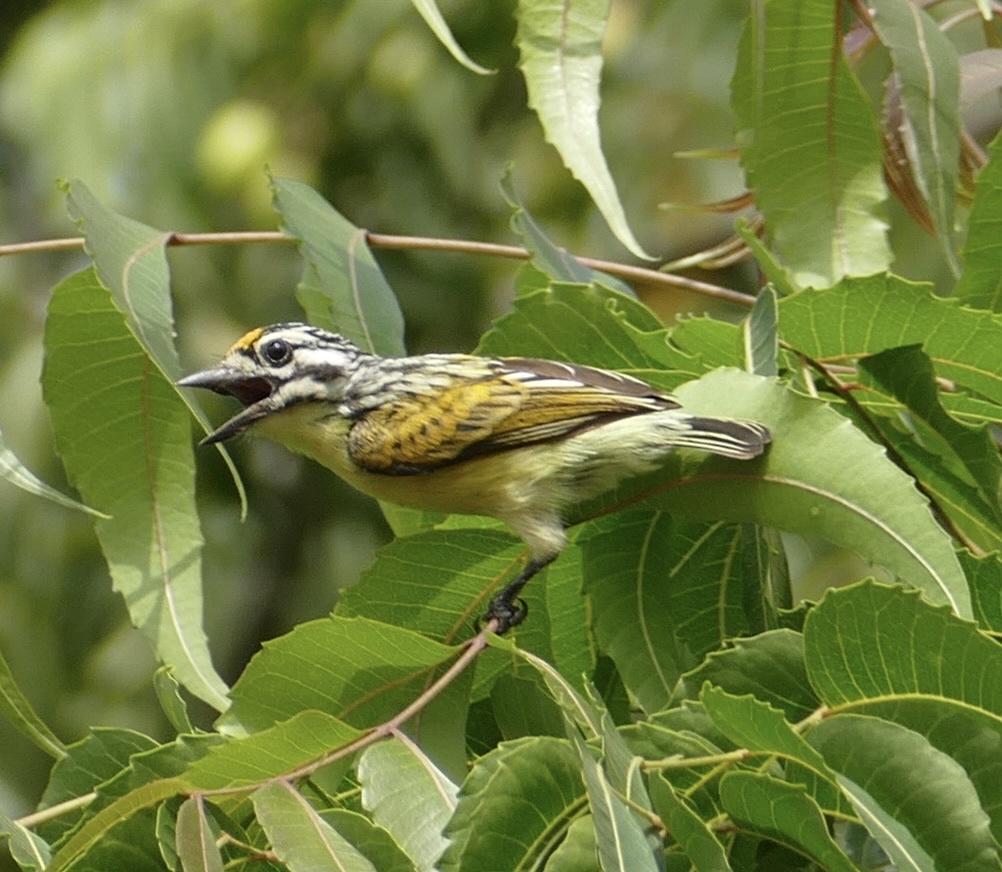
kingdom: Animalia
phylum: Chordata
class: Aves
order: Piciformes
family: Lybiidae
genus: Pogoniulus
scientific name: Pogoniulus chrysoconus
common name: Yellow-fronted tinkerbird
